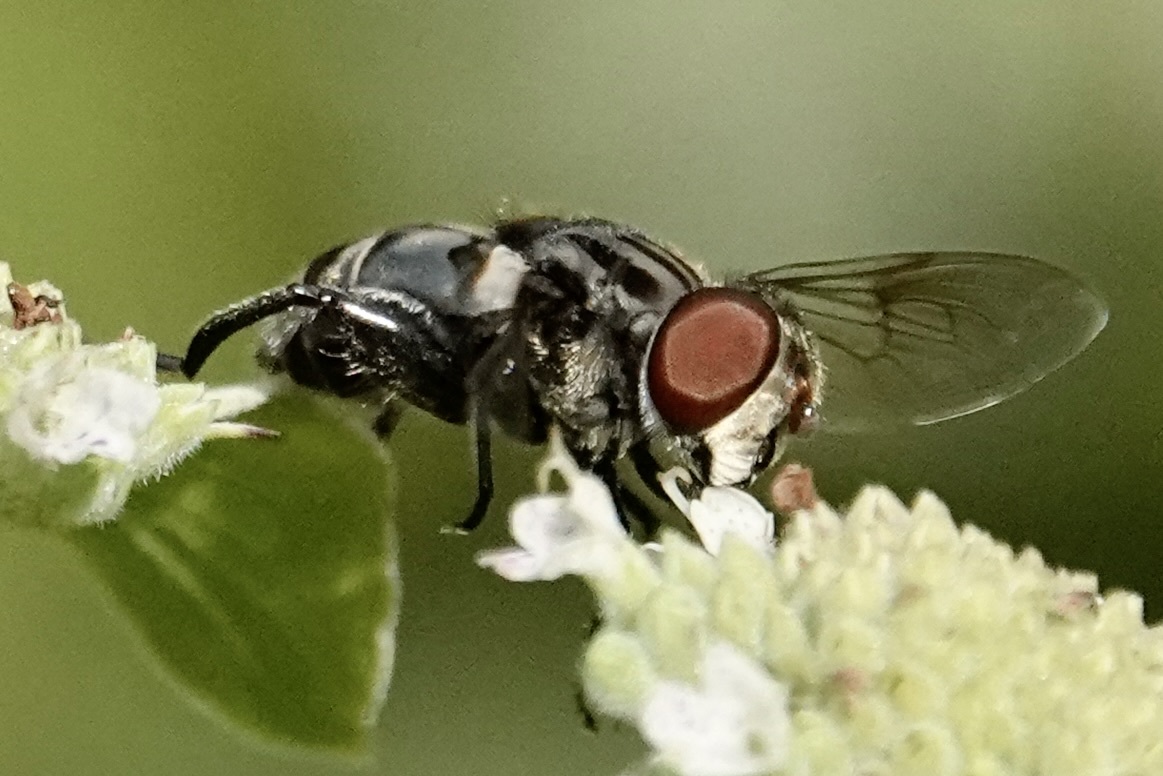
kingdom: Animalia
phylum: Arthropoda
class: Insecta
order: Diptera
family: Syrphidae
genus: Palpada
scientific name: Palpada furcata
